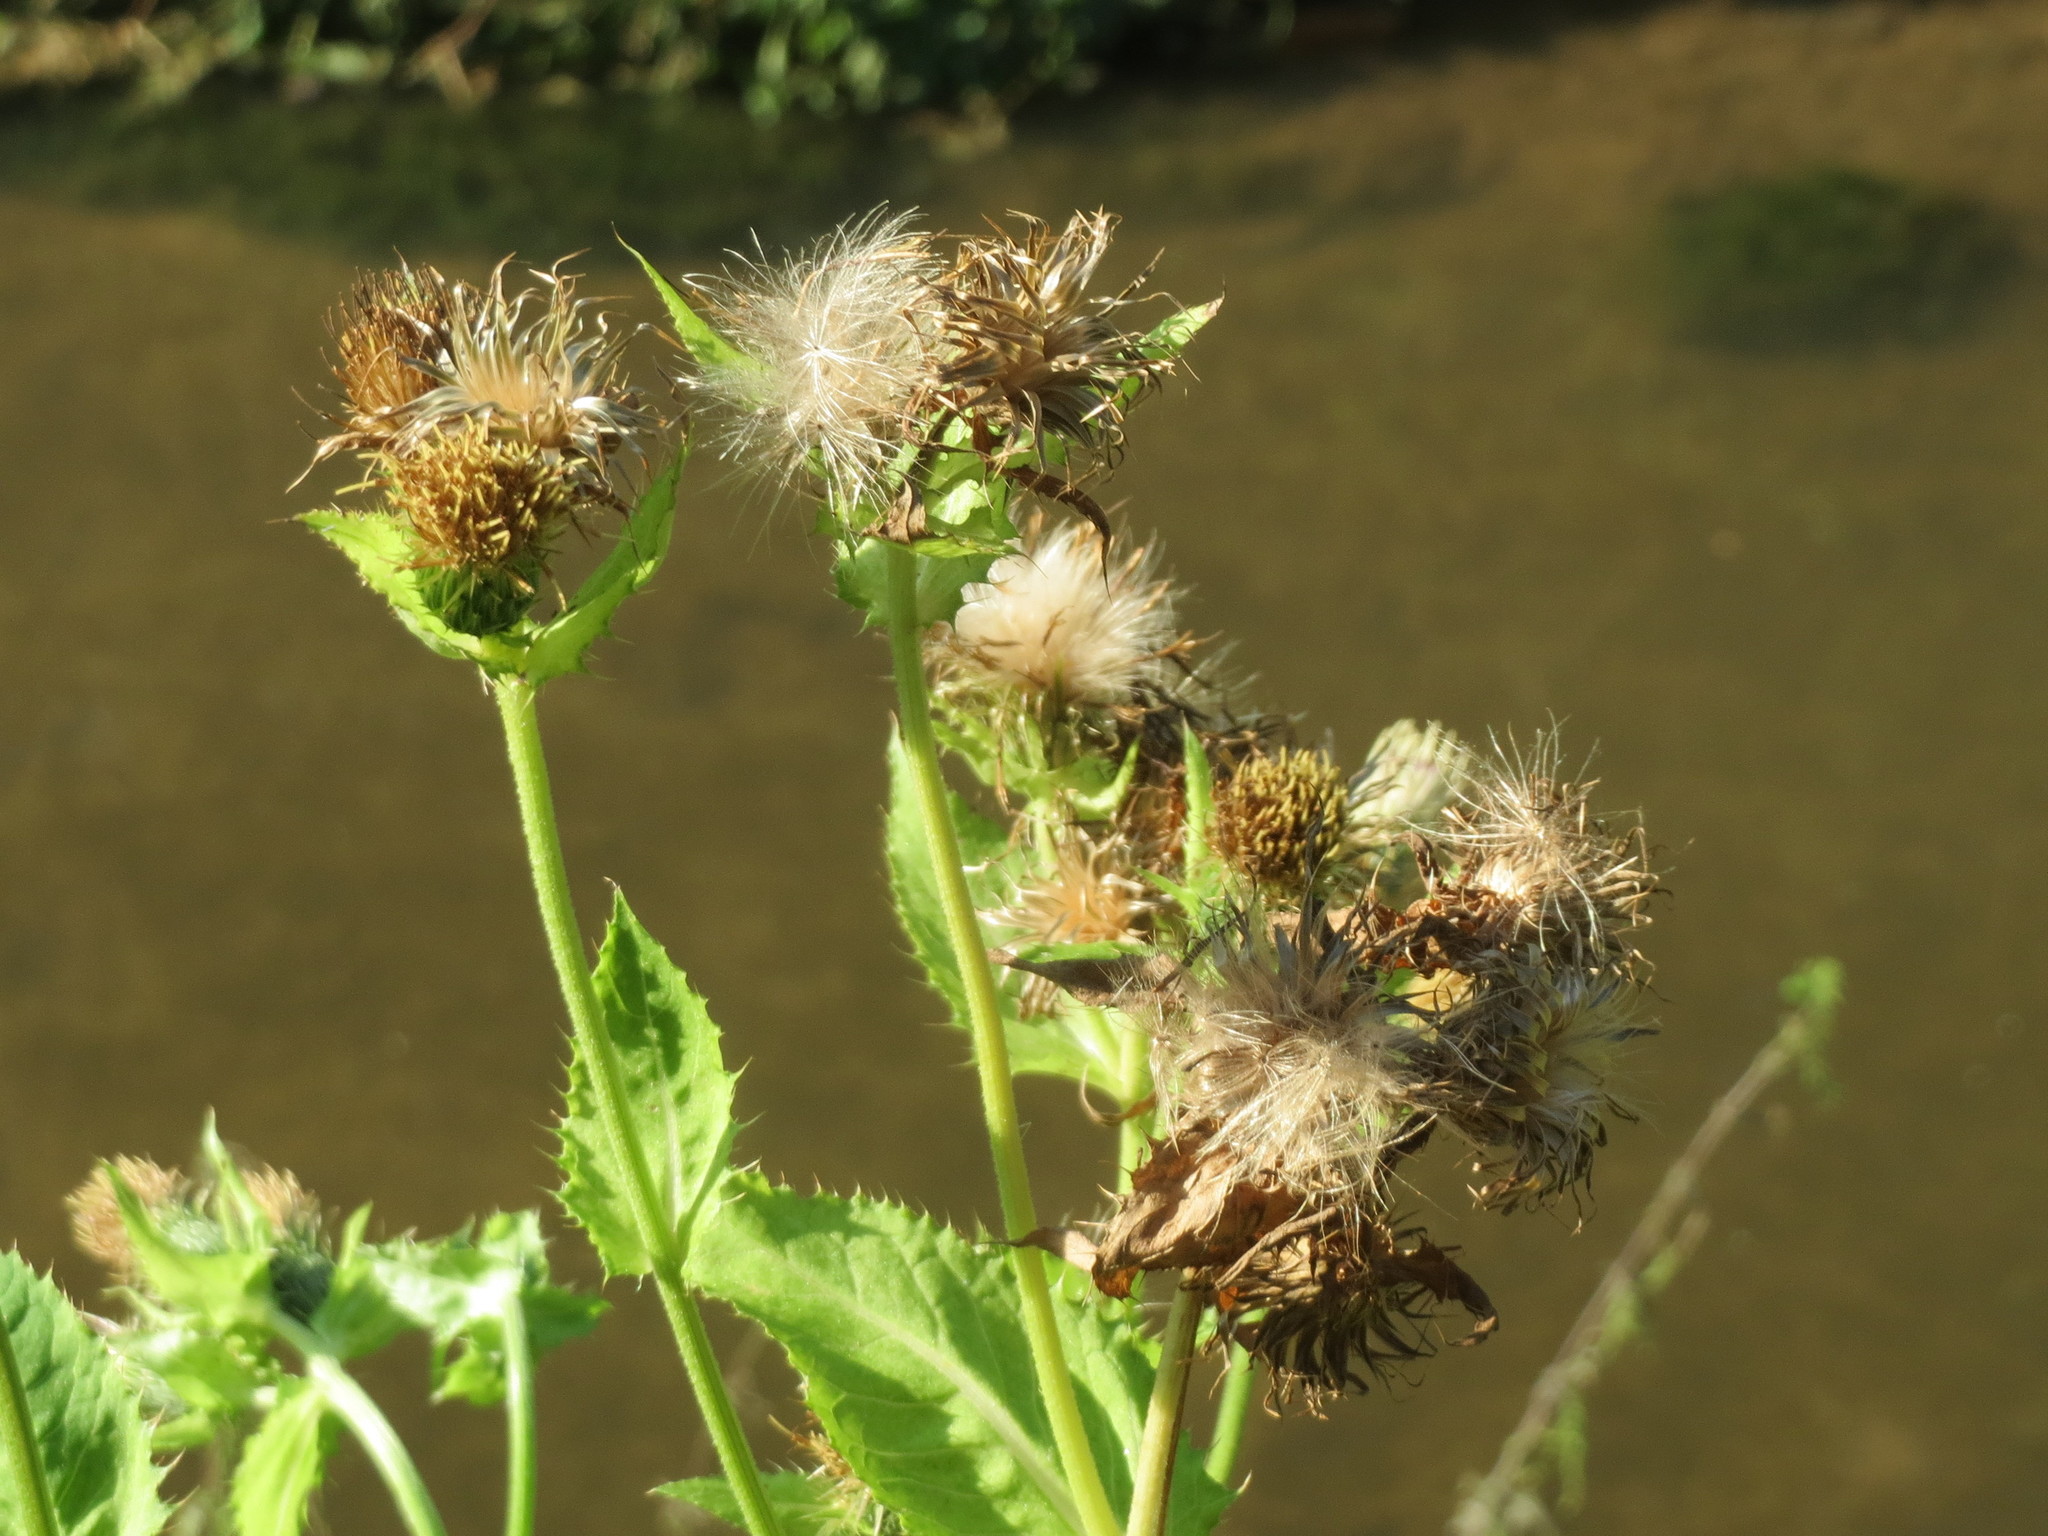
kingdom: Plantae
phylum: Tracheophyta
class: Magnoliopsida
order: Asterales
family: Asteraceae
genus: Cirsium
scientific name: Cirsium oleraceum
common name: Cabbage thistle
